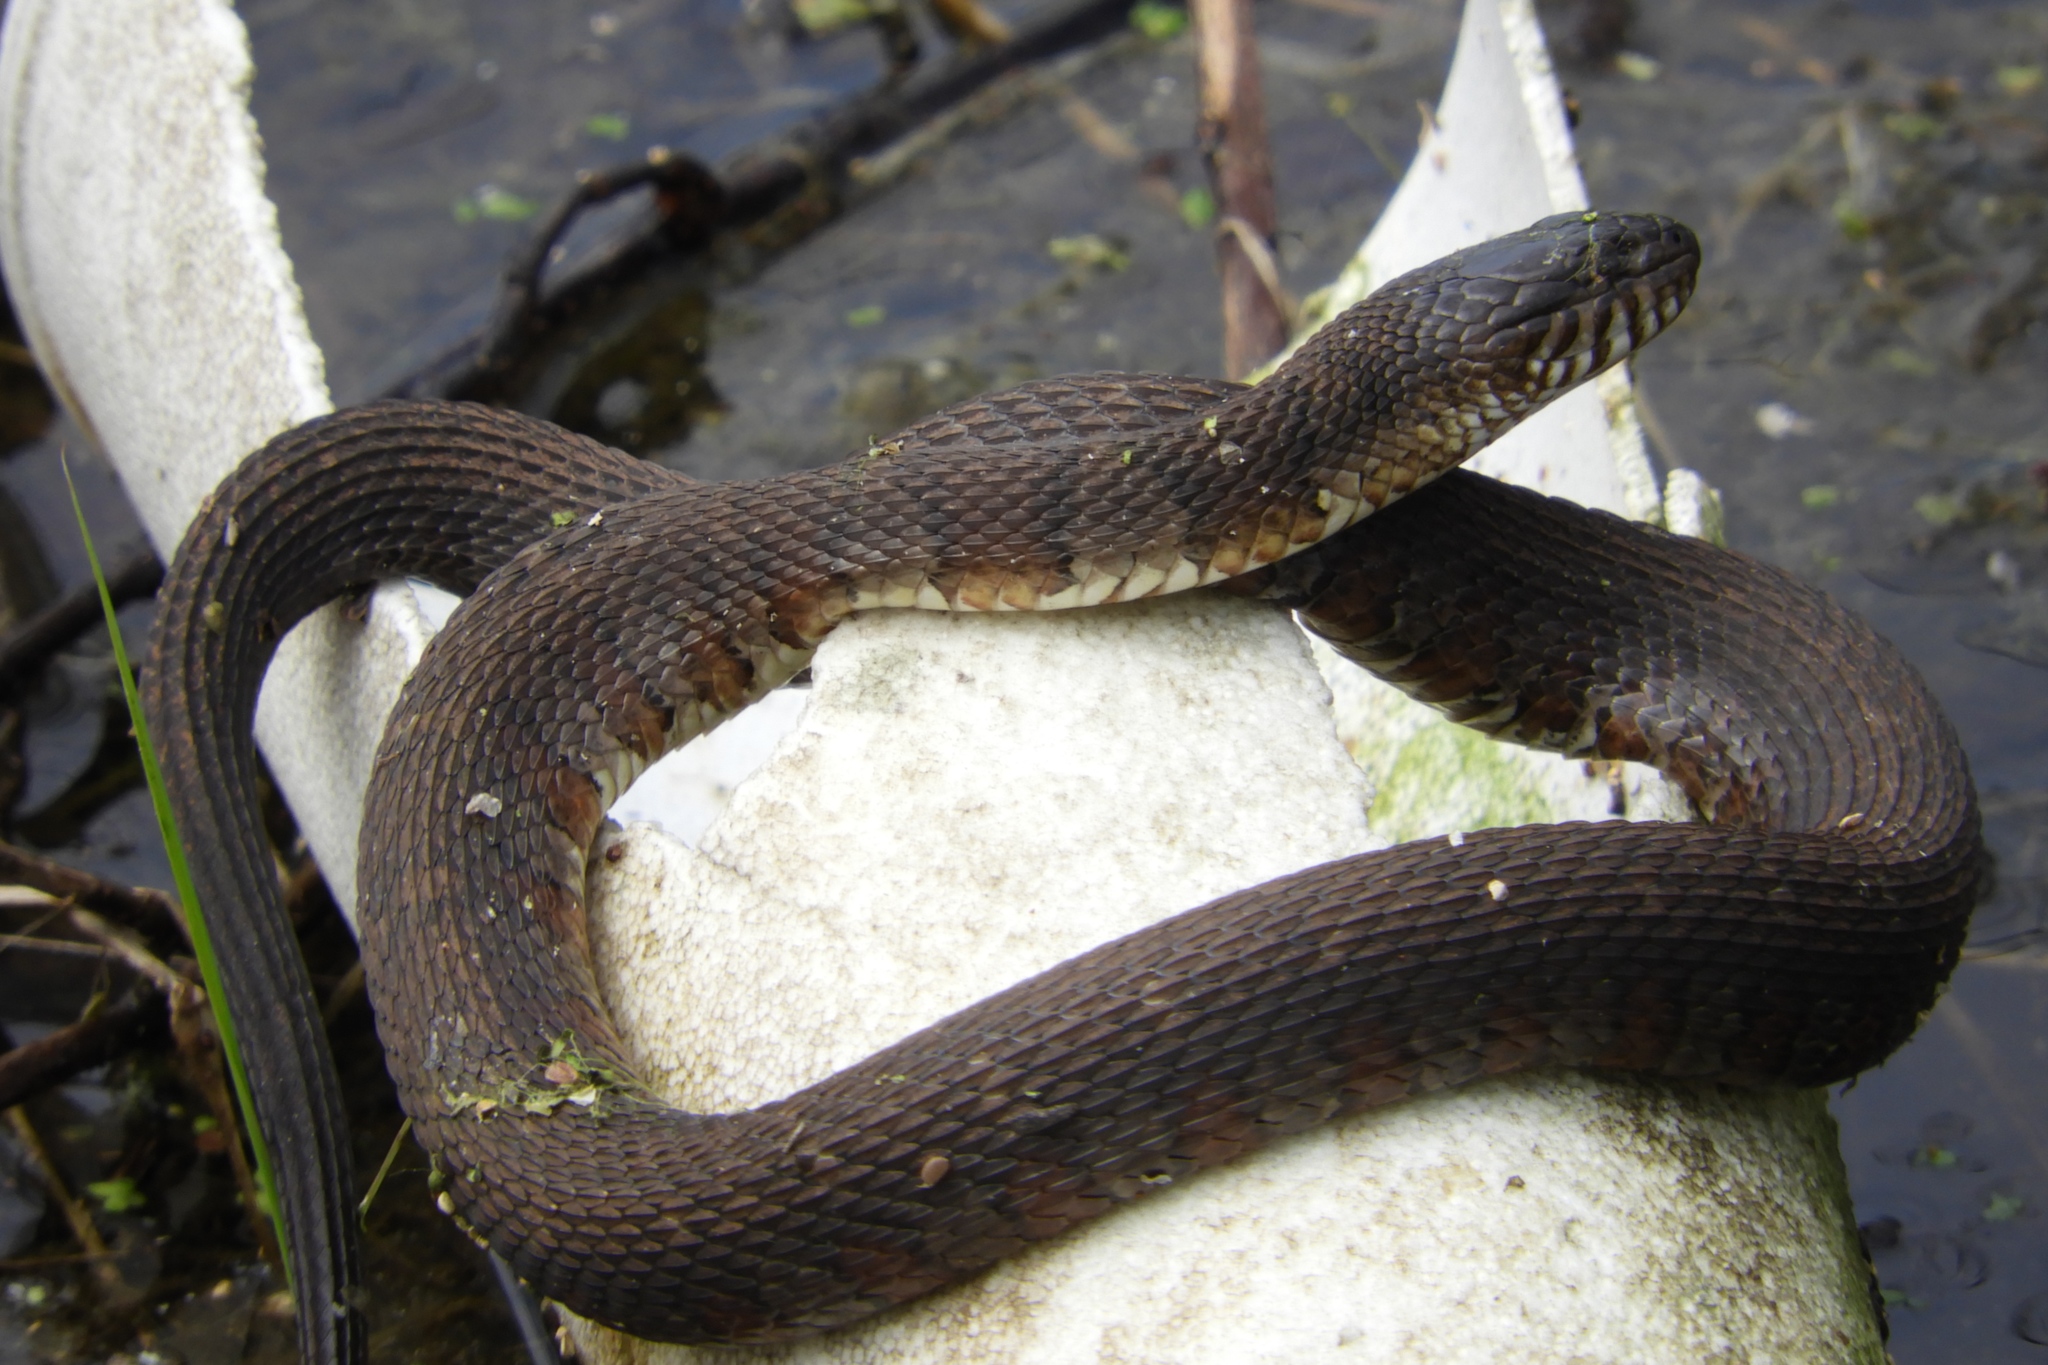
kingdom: Animalia
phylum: Chordata
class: Squamata
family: Colubridae
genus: Nerodia
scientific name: Nerodia sipedon
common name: Northern water snake
